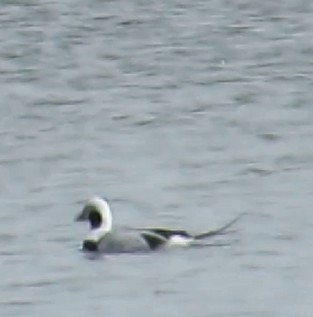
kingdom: Animalia
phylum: Chordata
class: Aves
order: Anseriformes
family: Anatidae
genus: Clangula
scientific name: Clangula hyemalis
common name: Long-tailed duck
